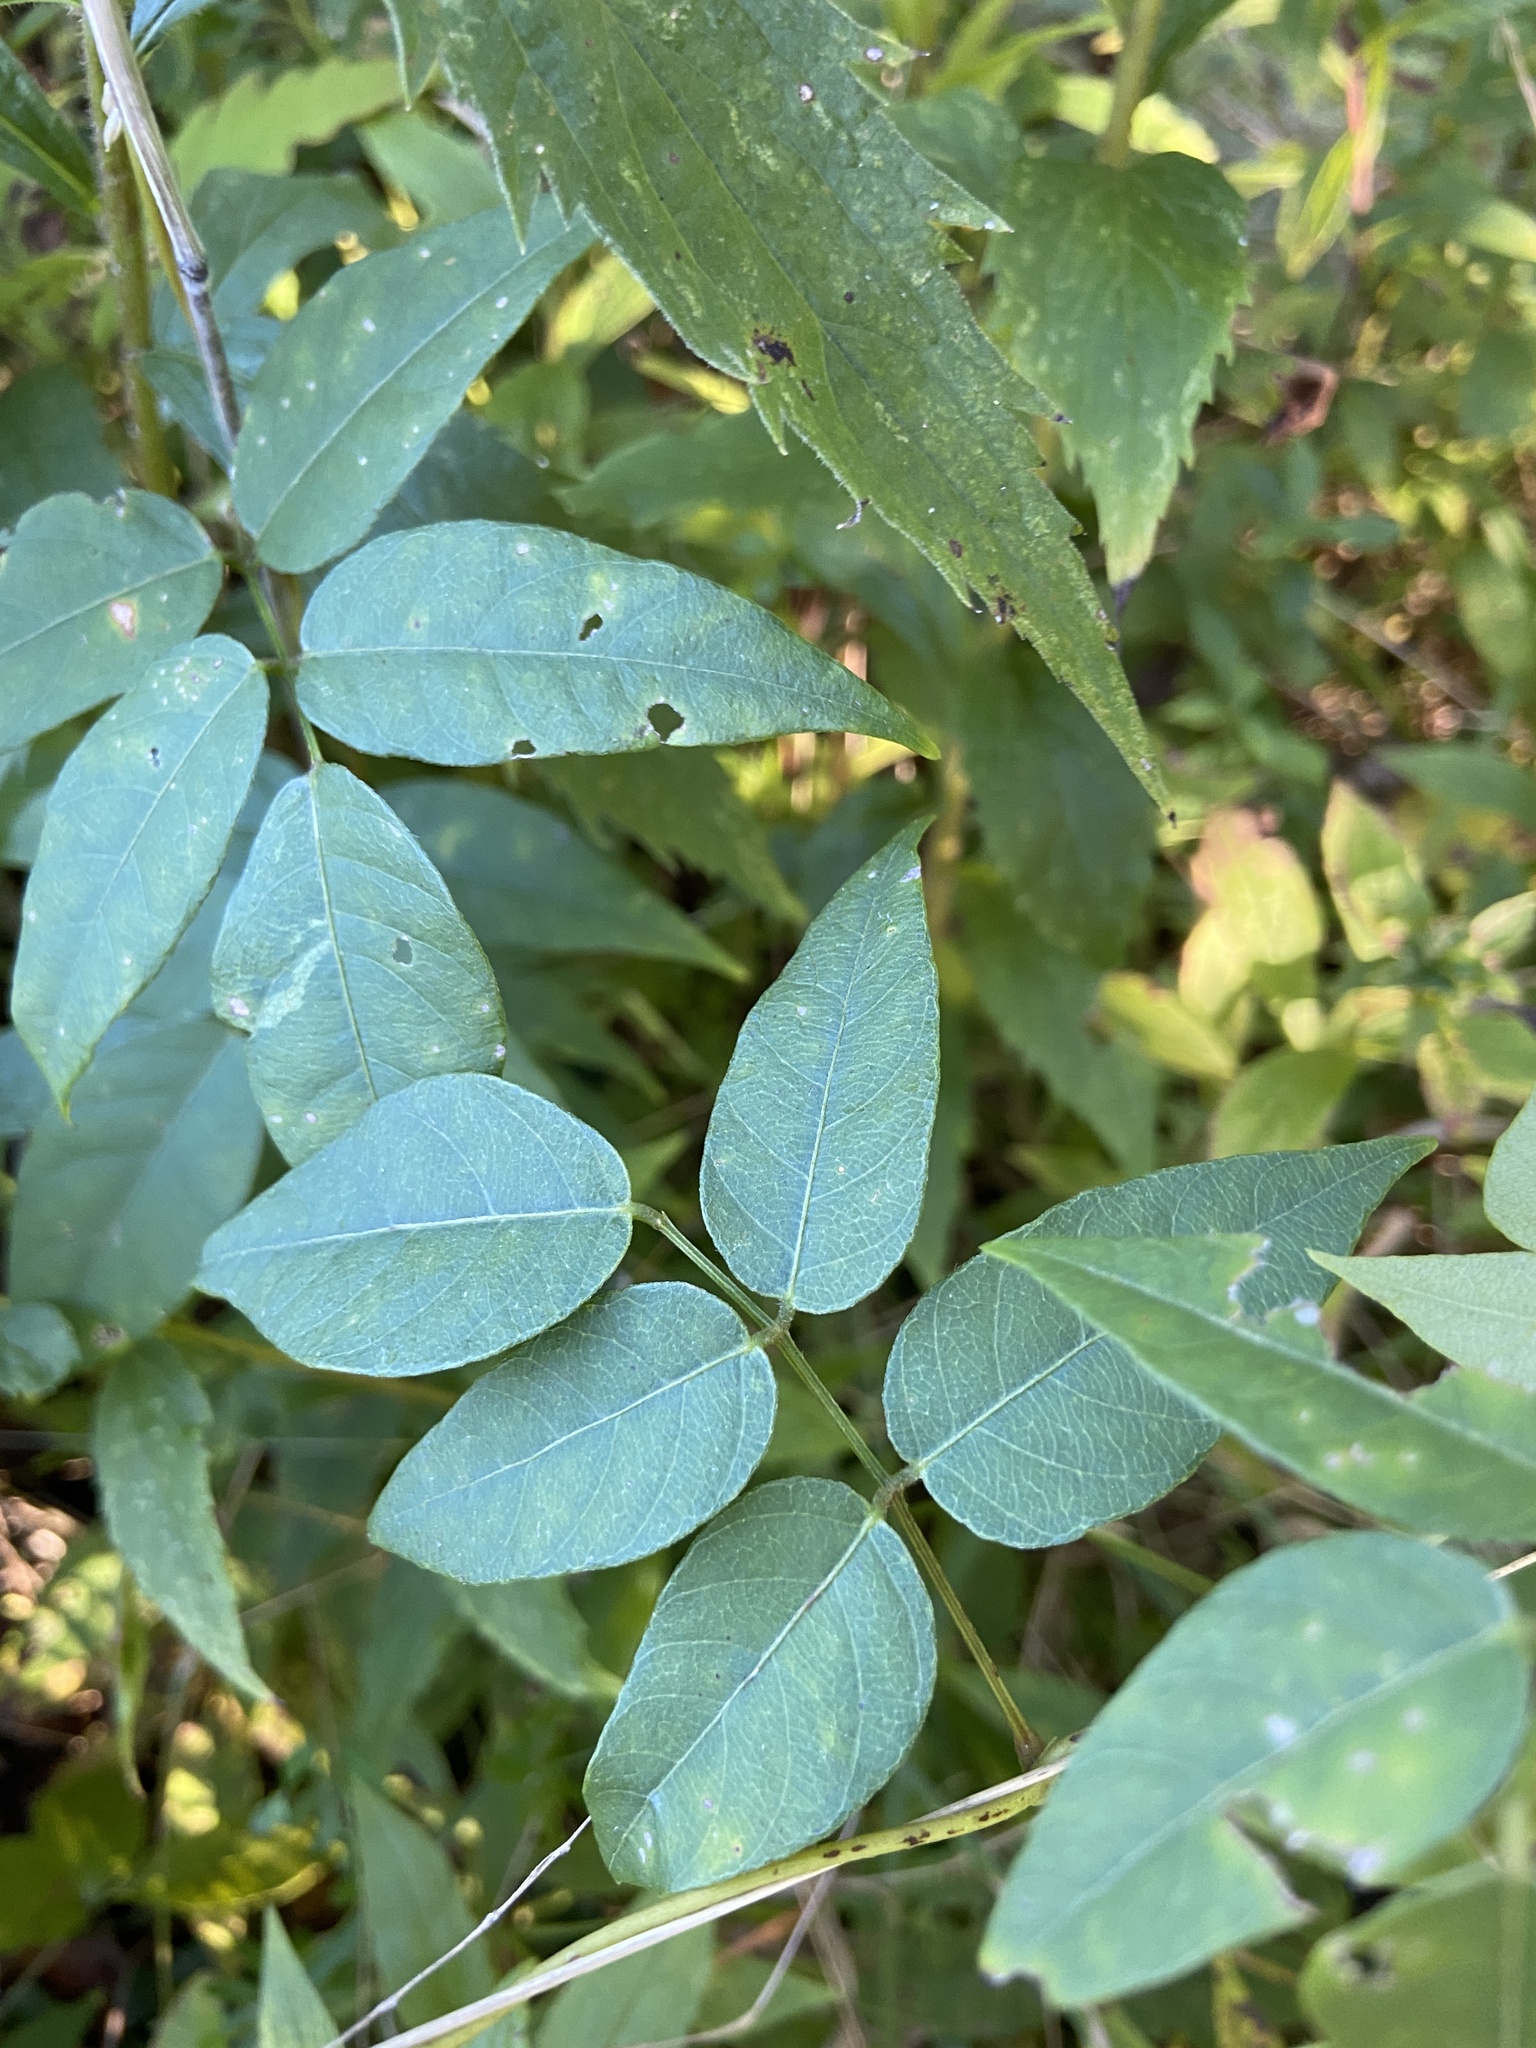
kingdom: Plantae
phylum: Tracheophyta
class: Magnoliopsida
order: Fabales
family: Fabaceae
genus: Apios
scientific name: Apios americana
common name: American potato-bean
